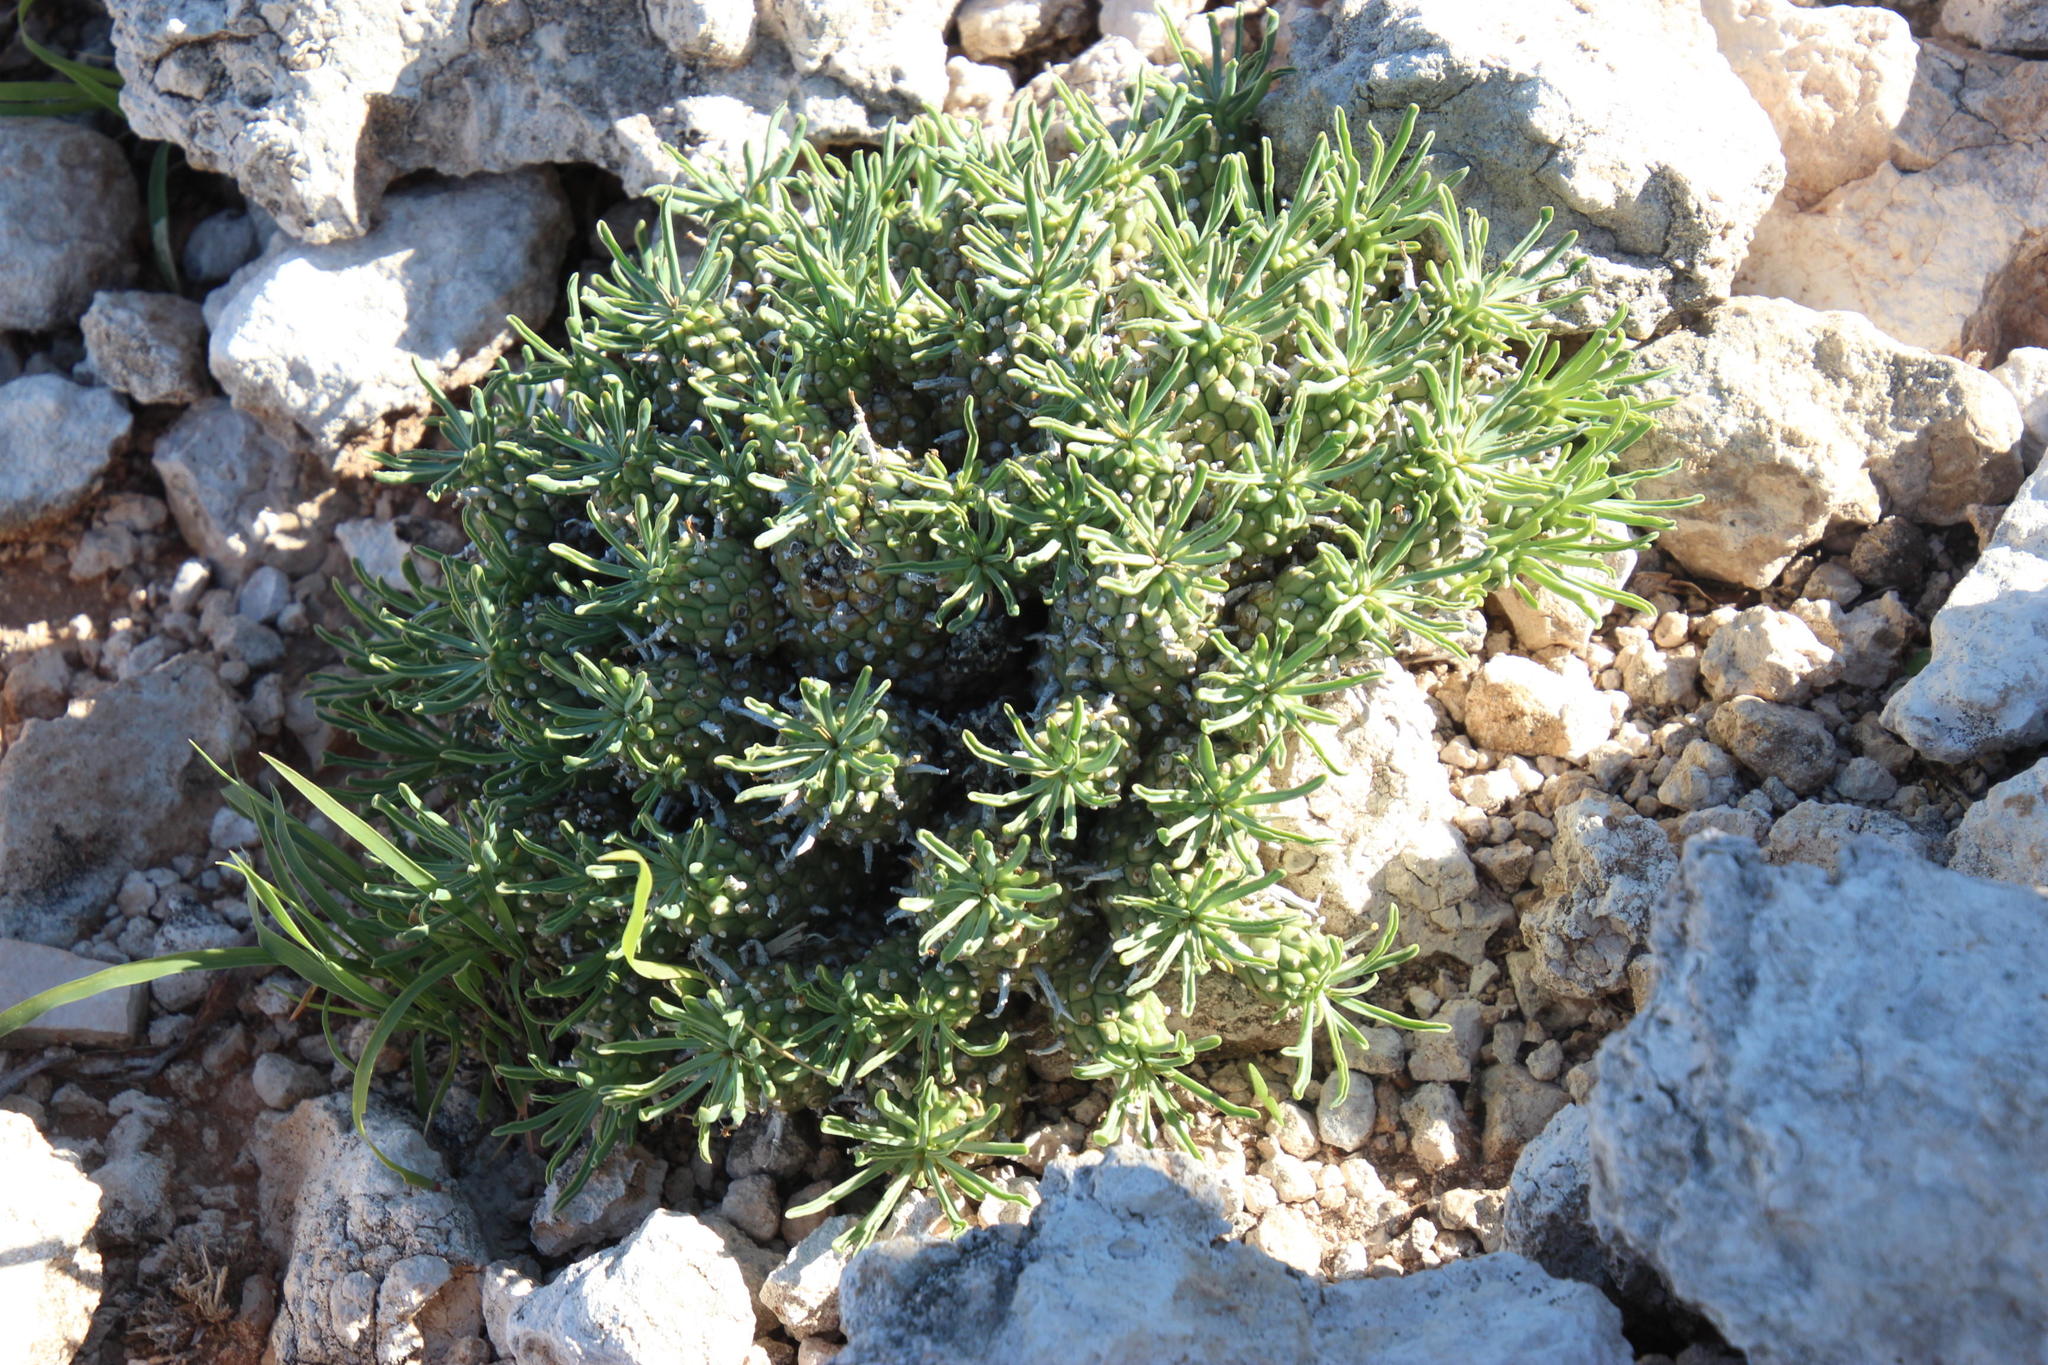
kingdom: Plantae
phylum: Tracheophyta
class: Magnoliopsida
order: Malpighiales
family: Euphorbiaceae
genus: Euphorbia
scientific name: Euphorbia braunsii
